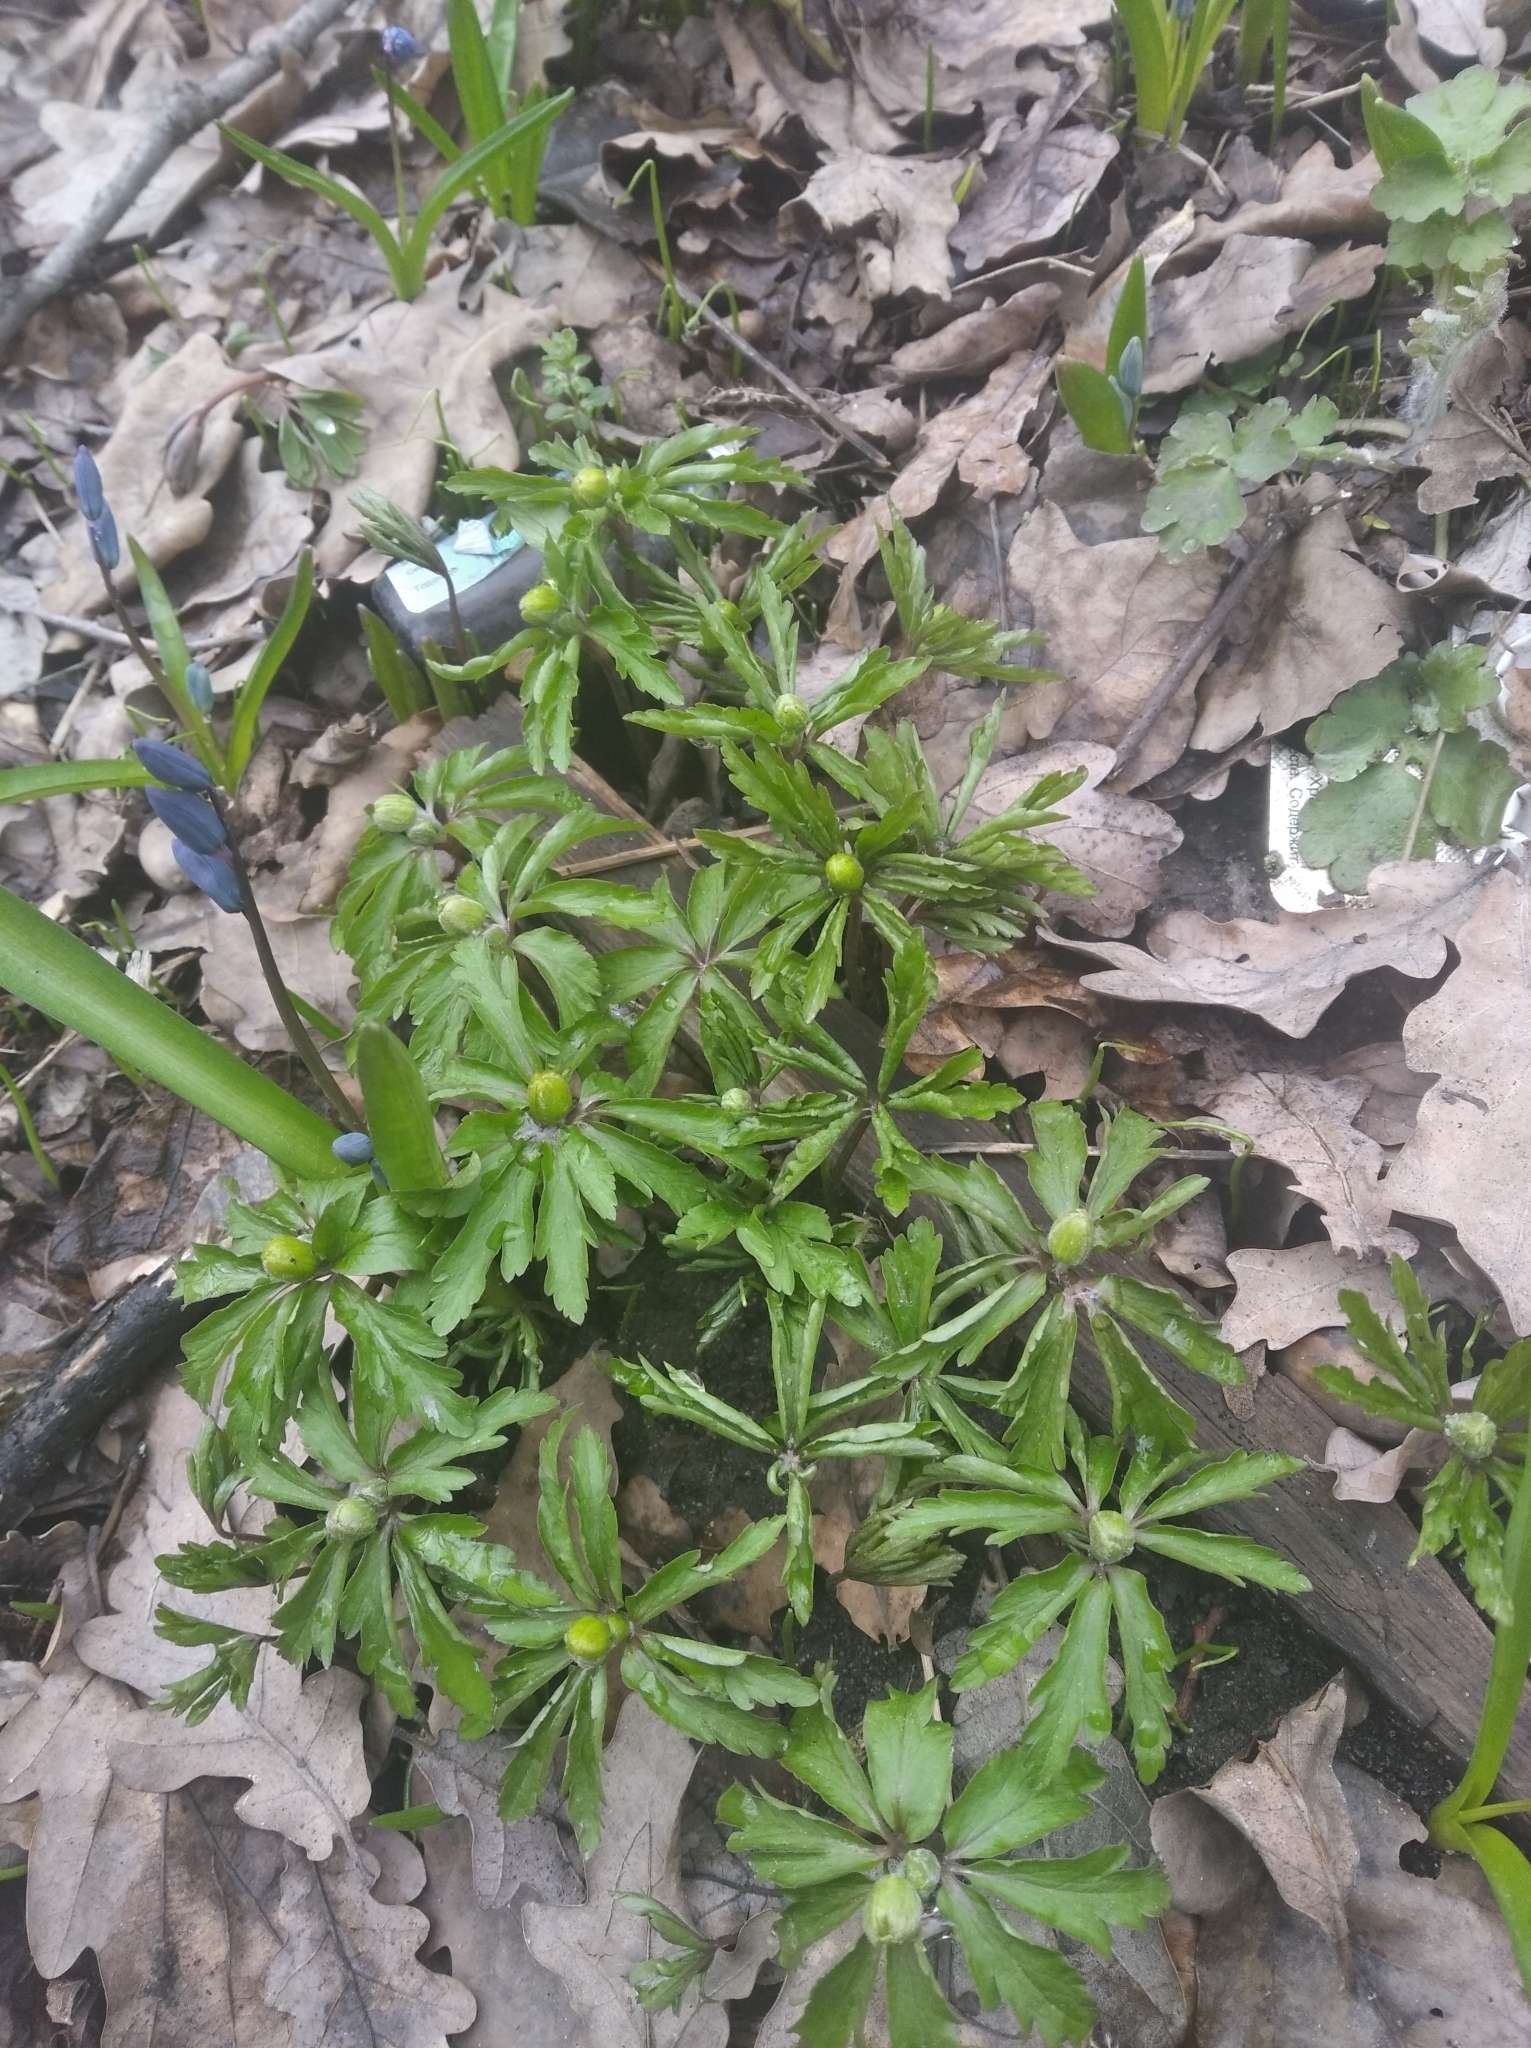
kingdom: Plantae
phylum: Tracheophyta
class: Magnoliopsida
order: Ranunculales
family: Ranunculaceae
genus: Anemone
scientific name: Anemone ranunculoides
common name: Yellow anemone
